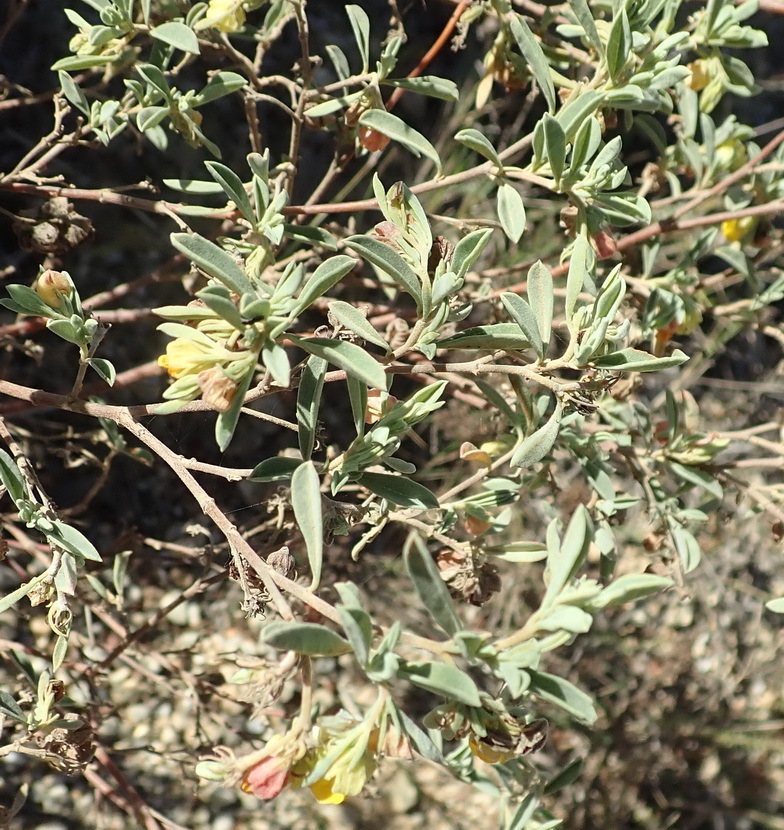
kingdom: Plantae
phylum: Tracheophyta
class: Magnoliopsida
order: Malvales
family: Malvaceae
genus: Hermannia
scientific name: Hermannia lavandulifolia
